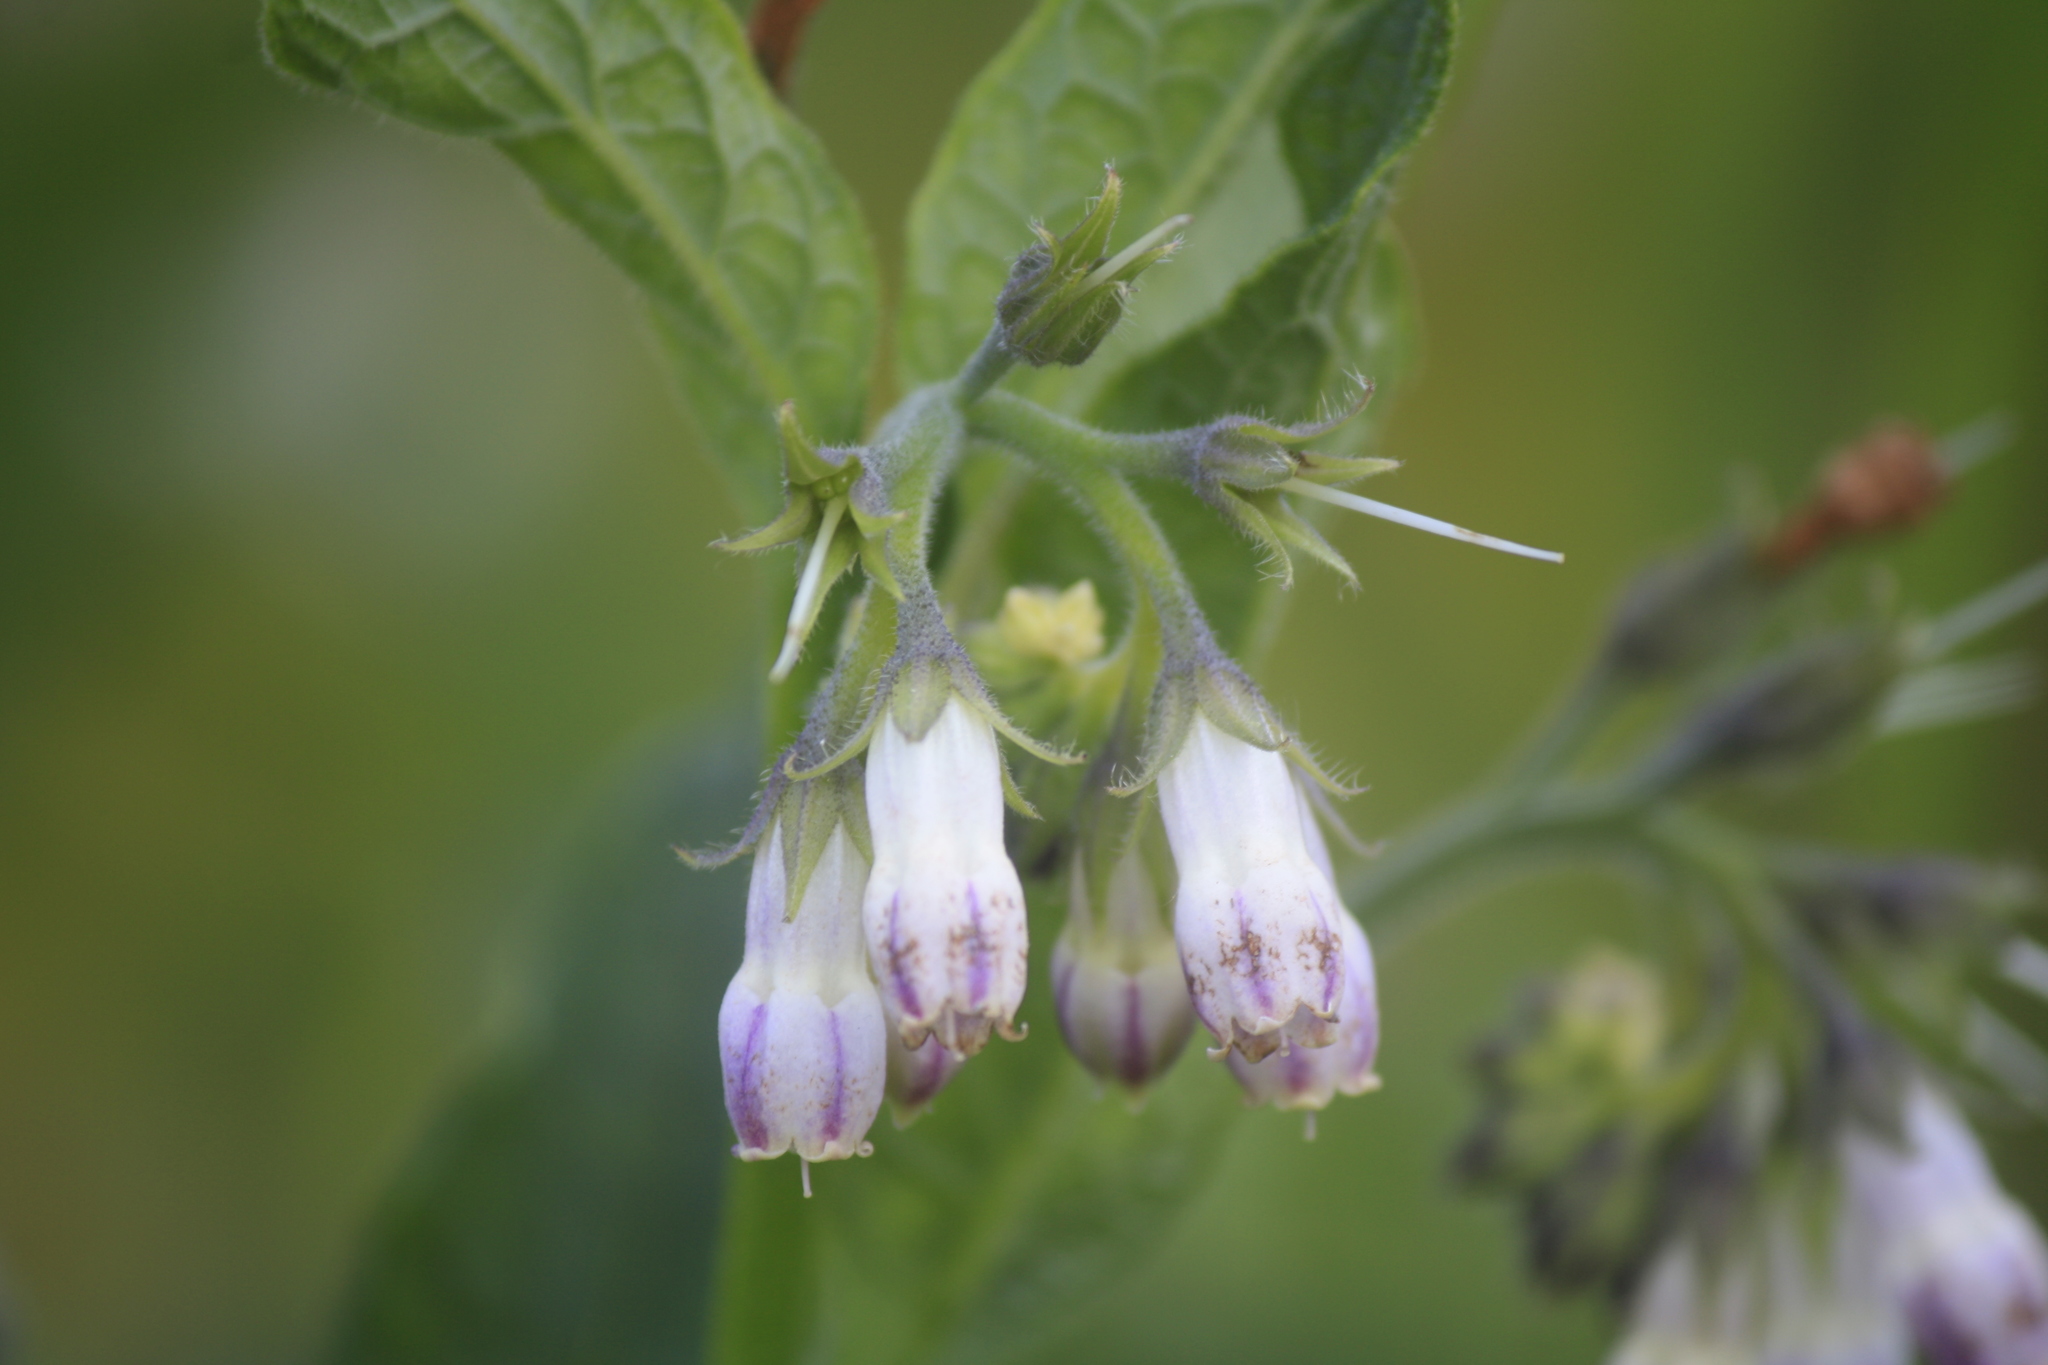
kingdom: Plantae
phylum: Tracheophyta
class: Magnoliopsida
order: Boraginales
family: Boraginaceae
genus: Symphytum
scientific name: Symphytum officinale
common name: Common comfrey
